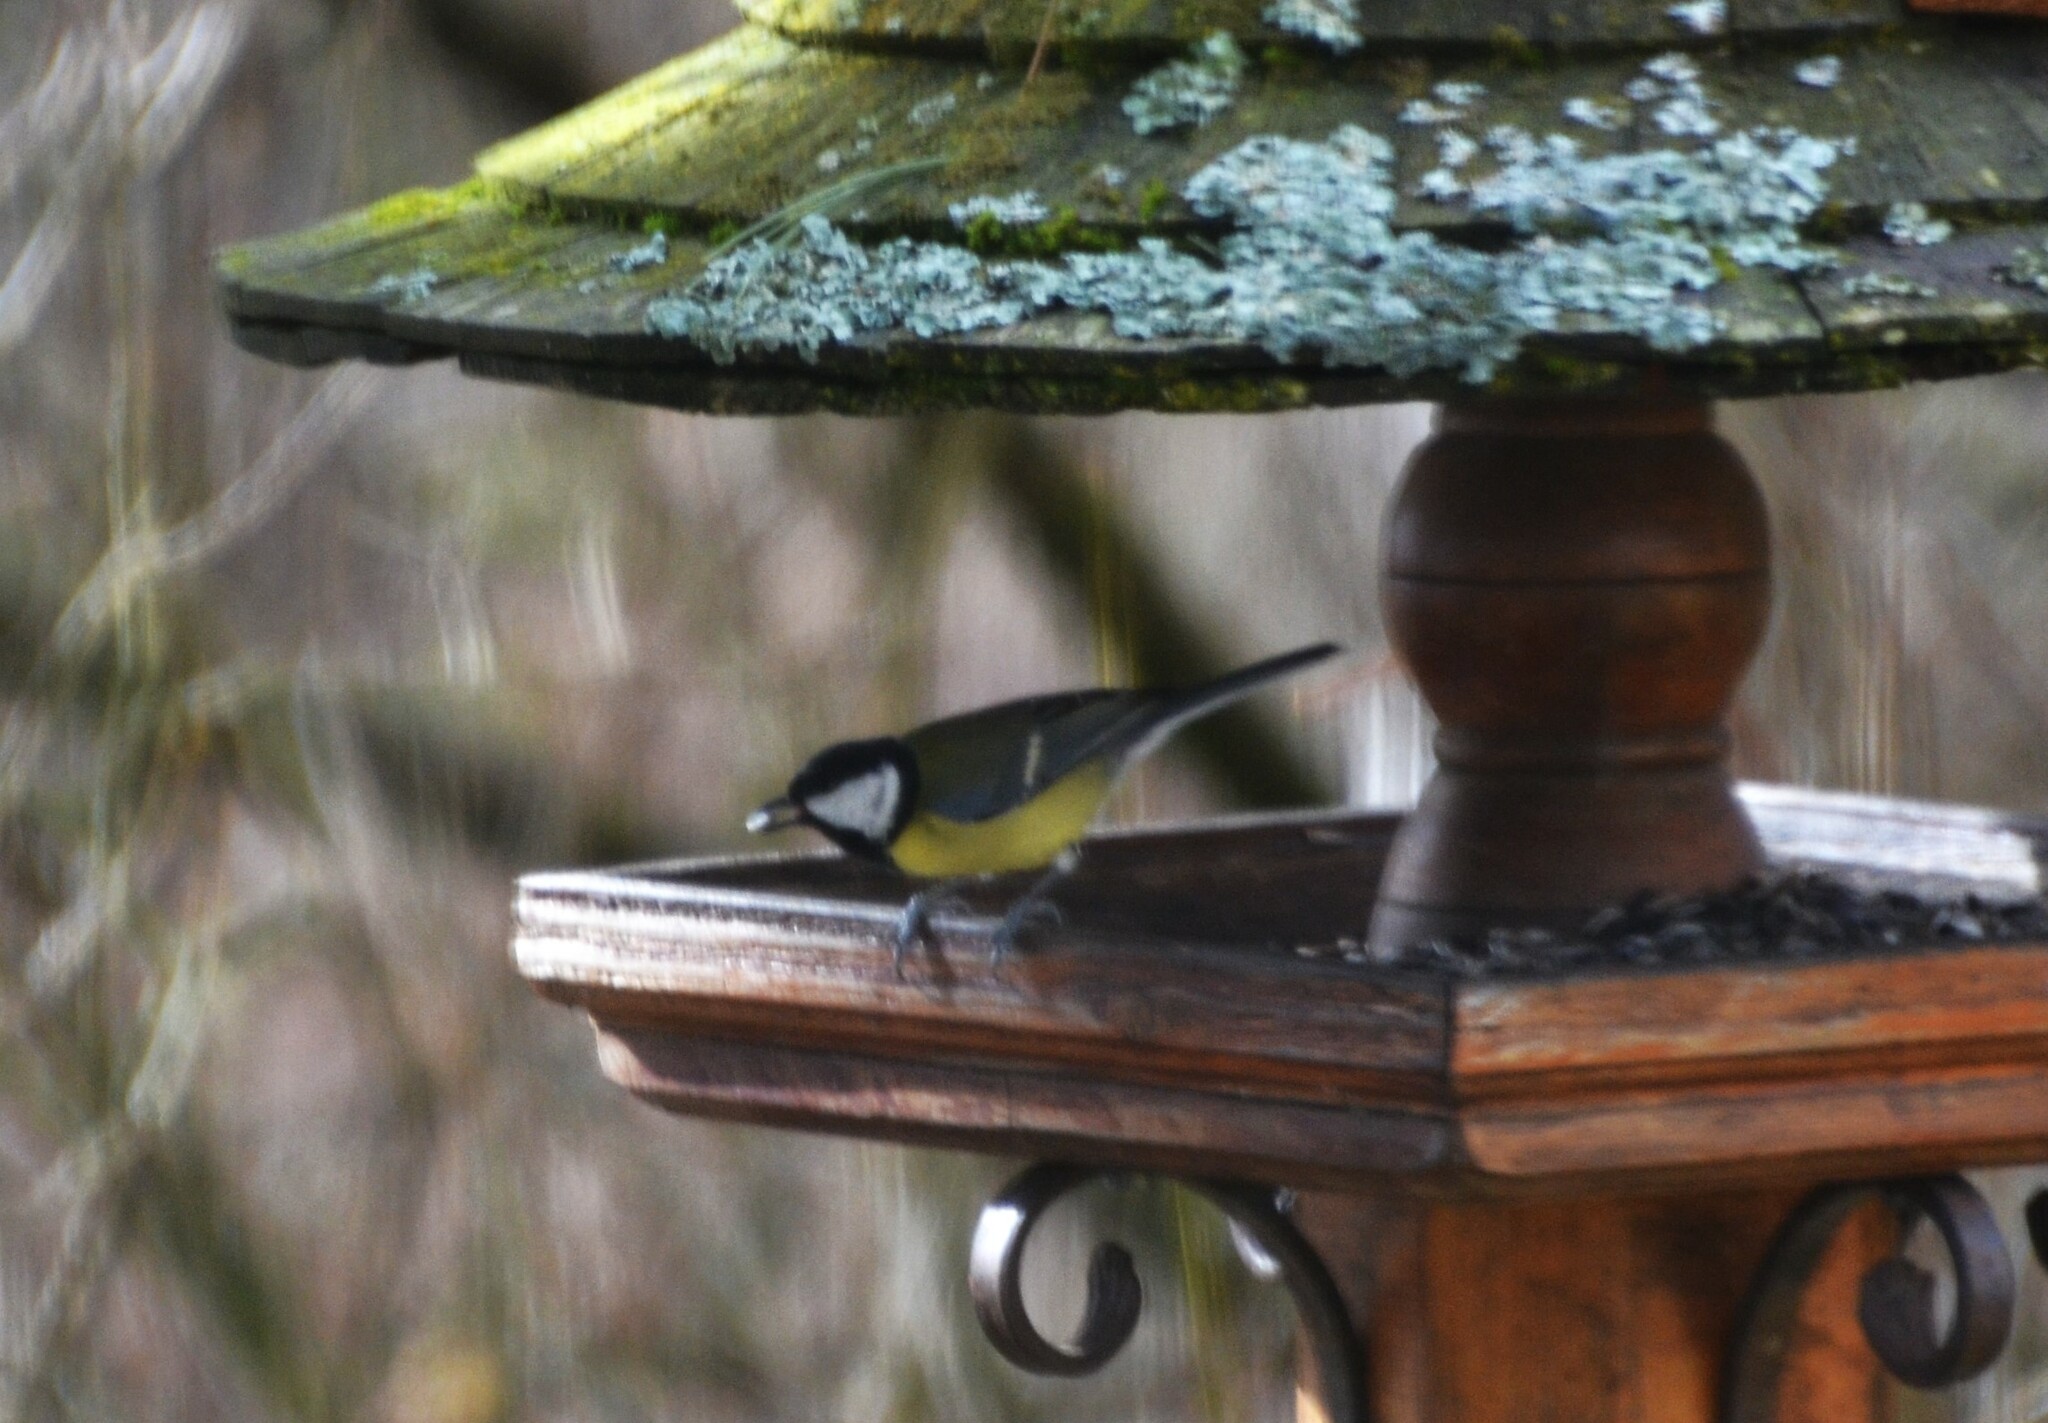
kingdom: Animalia
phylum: Chordata
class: Aves
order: Passeriformes
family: Paridae
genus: Parus
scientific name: Parus major
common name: Great tit
